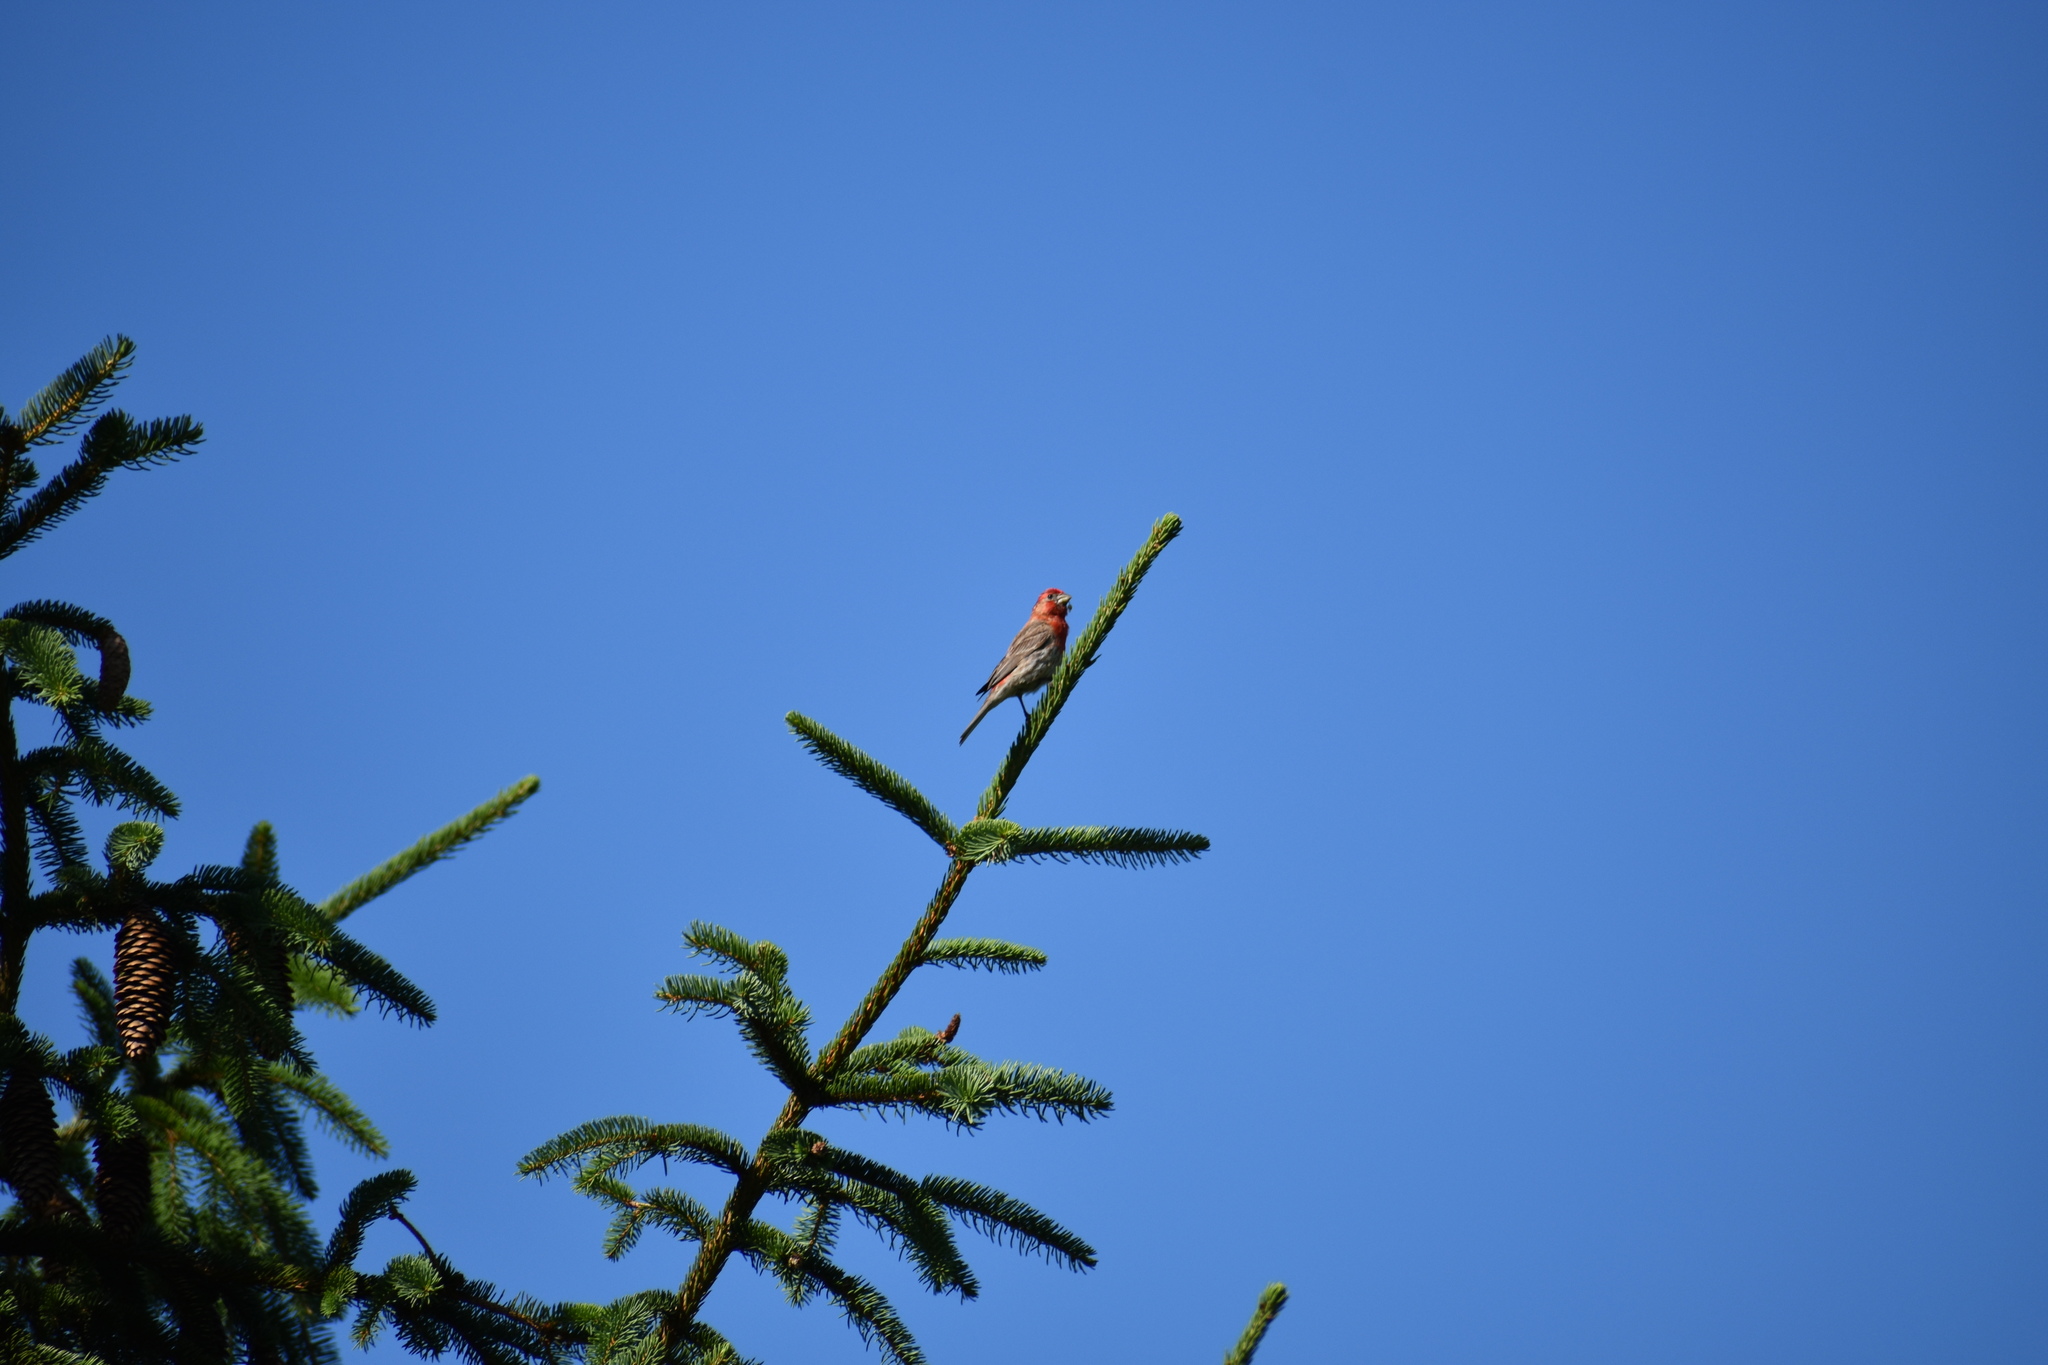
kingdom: Animalia
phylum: Chordata
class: Aves
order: Passeriformes
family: Fringillidae
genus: Haemorhous
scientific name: Haemorhous mexicanus
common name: House finch
